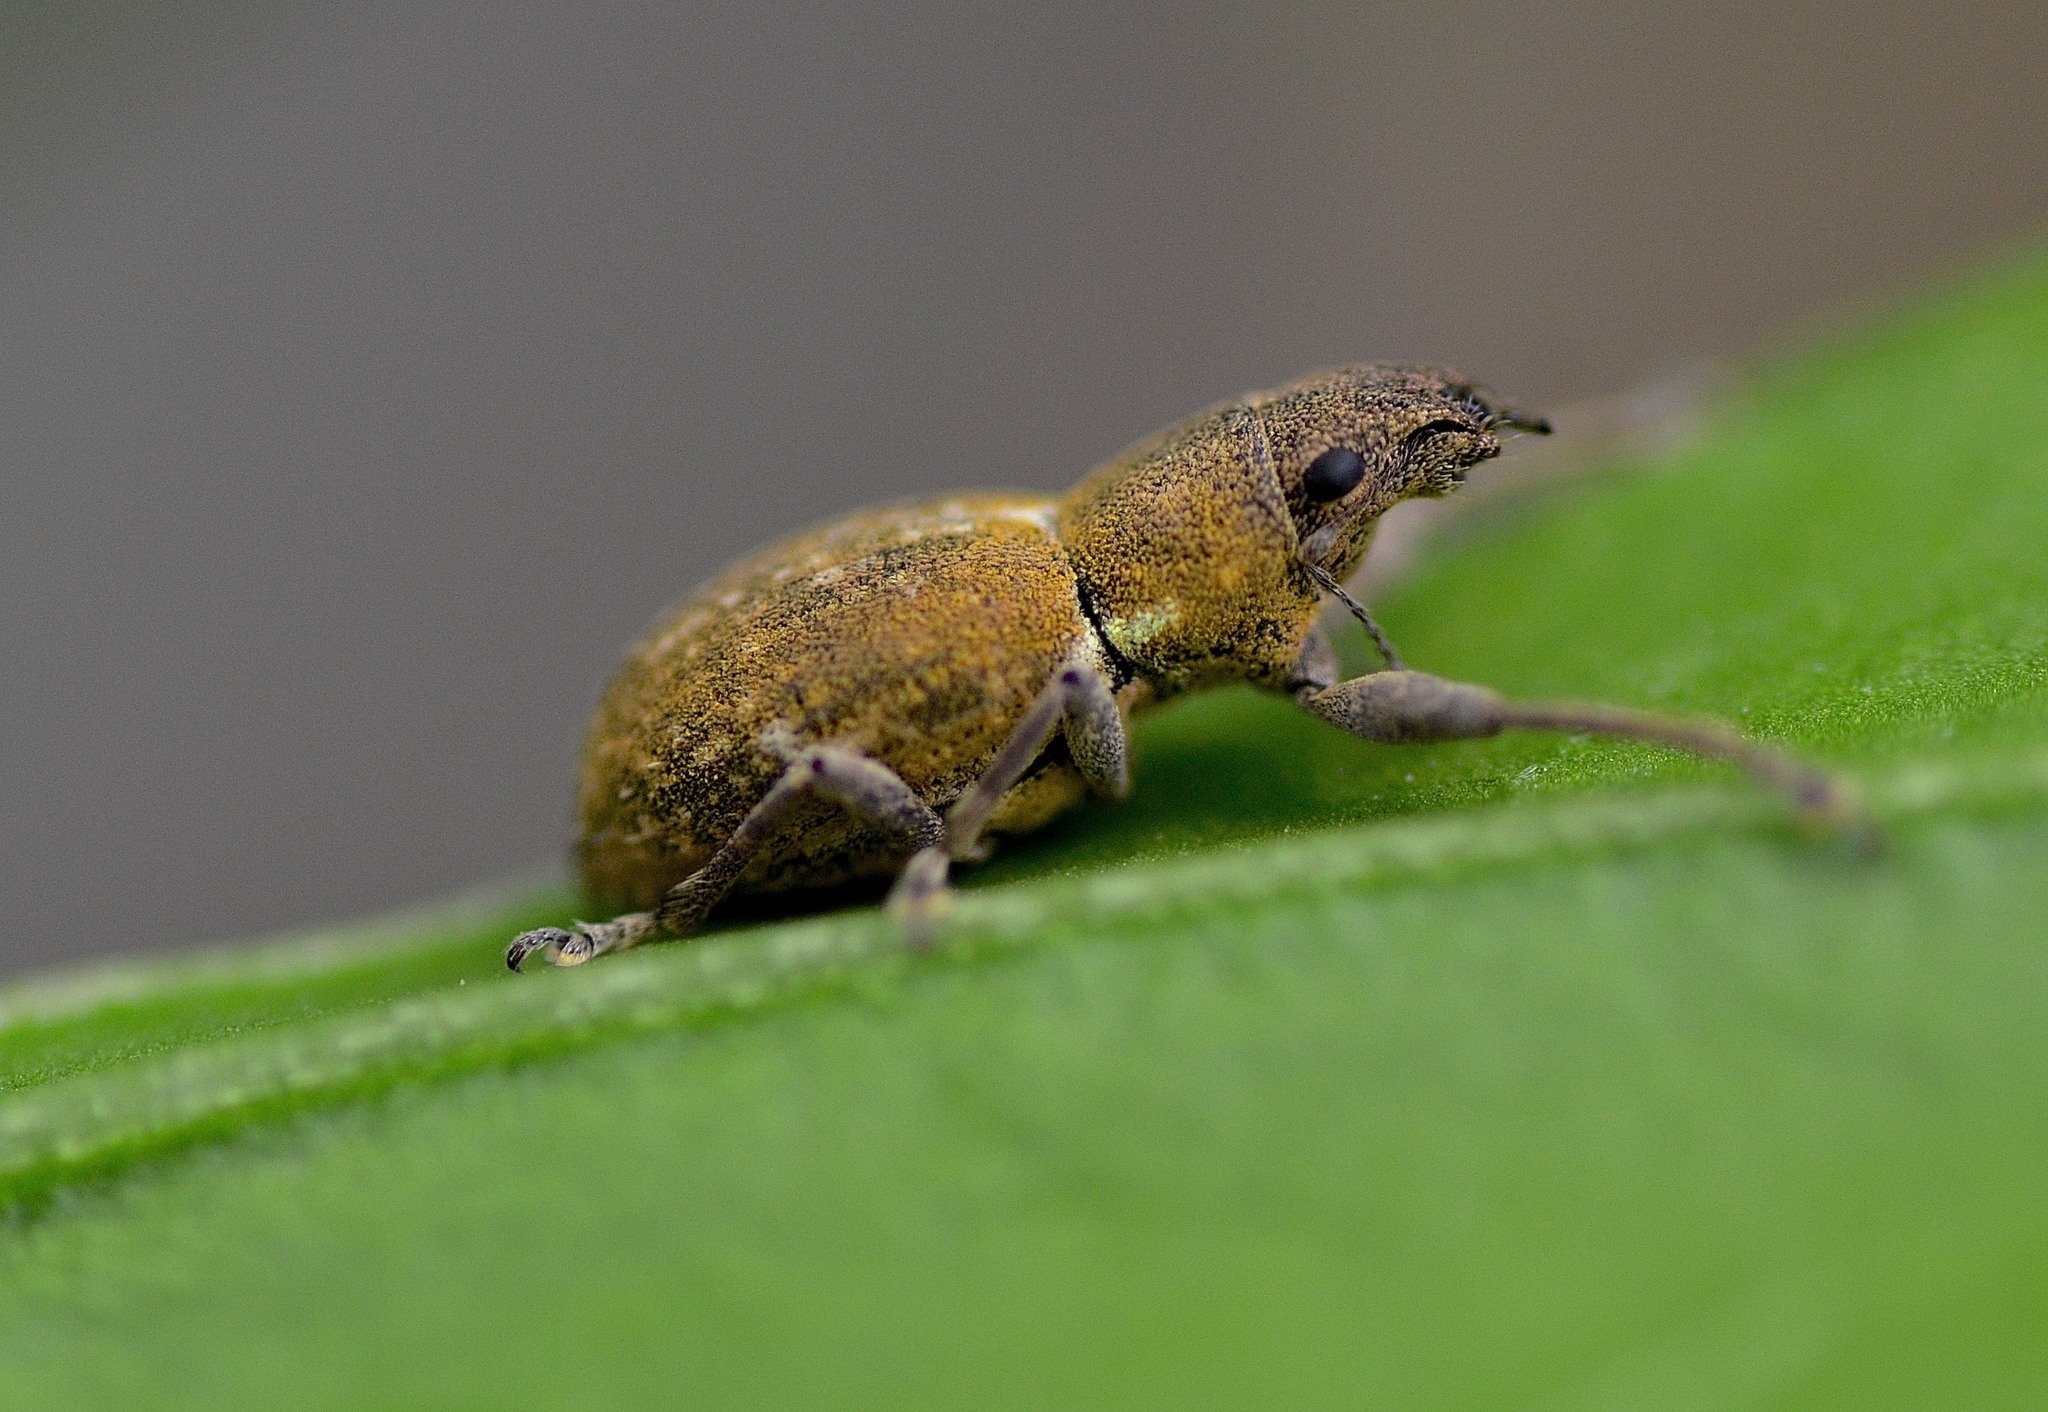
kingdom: Animalia
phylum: Arthropoda
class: Insecta
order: Coleoptera
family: Curculionidae
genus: Naupactus
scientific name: Naupactus cervinus
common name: Fuller rose beetle
